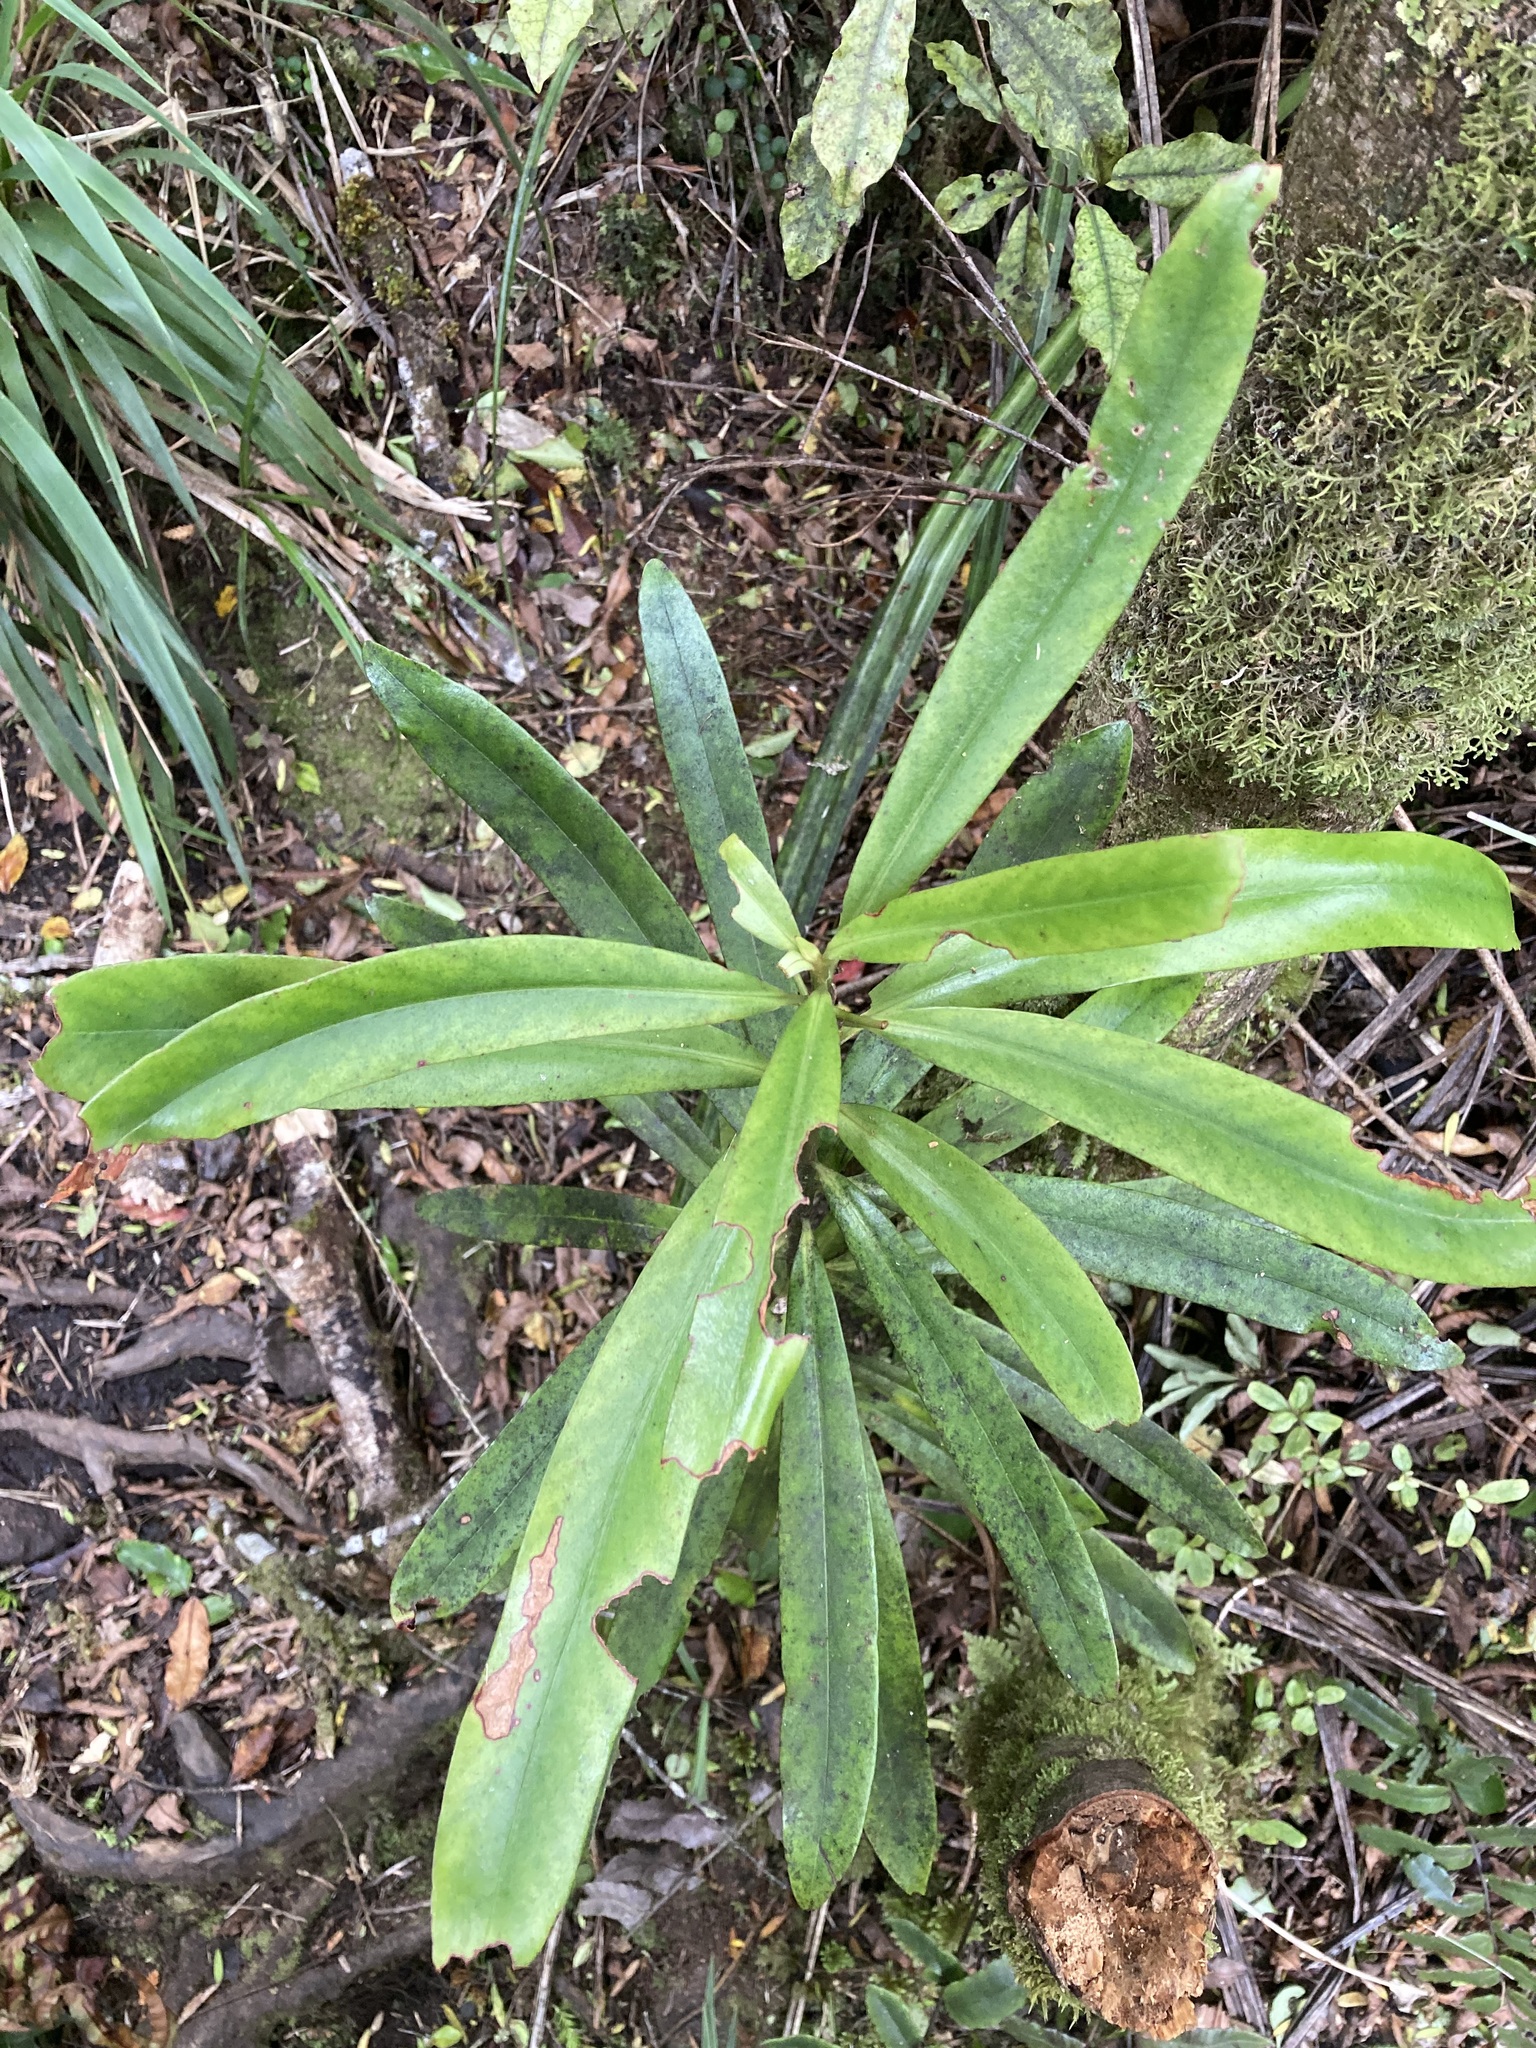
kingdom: Plantae
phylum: Tracheophyta
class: Magnoliopsida
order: Ericales
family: Primulaceae
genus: Myrsine
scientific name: Myrsine salicina
